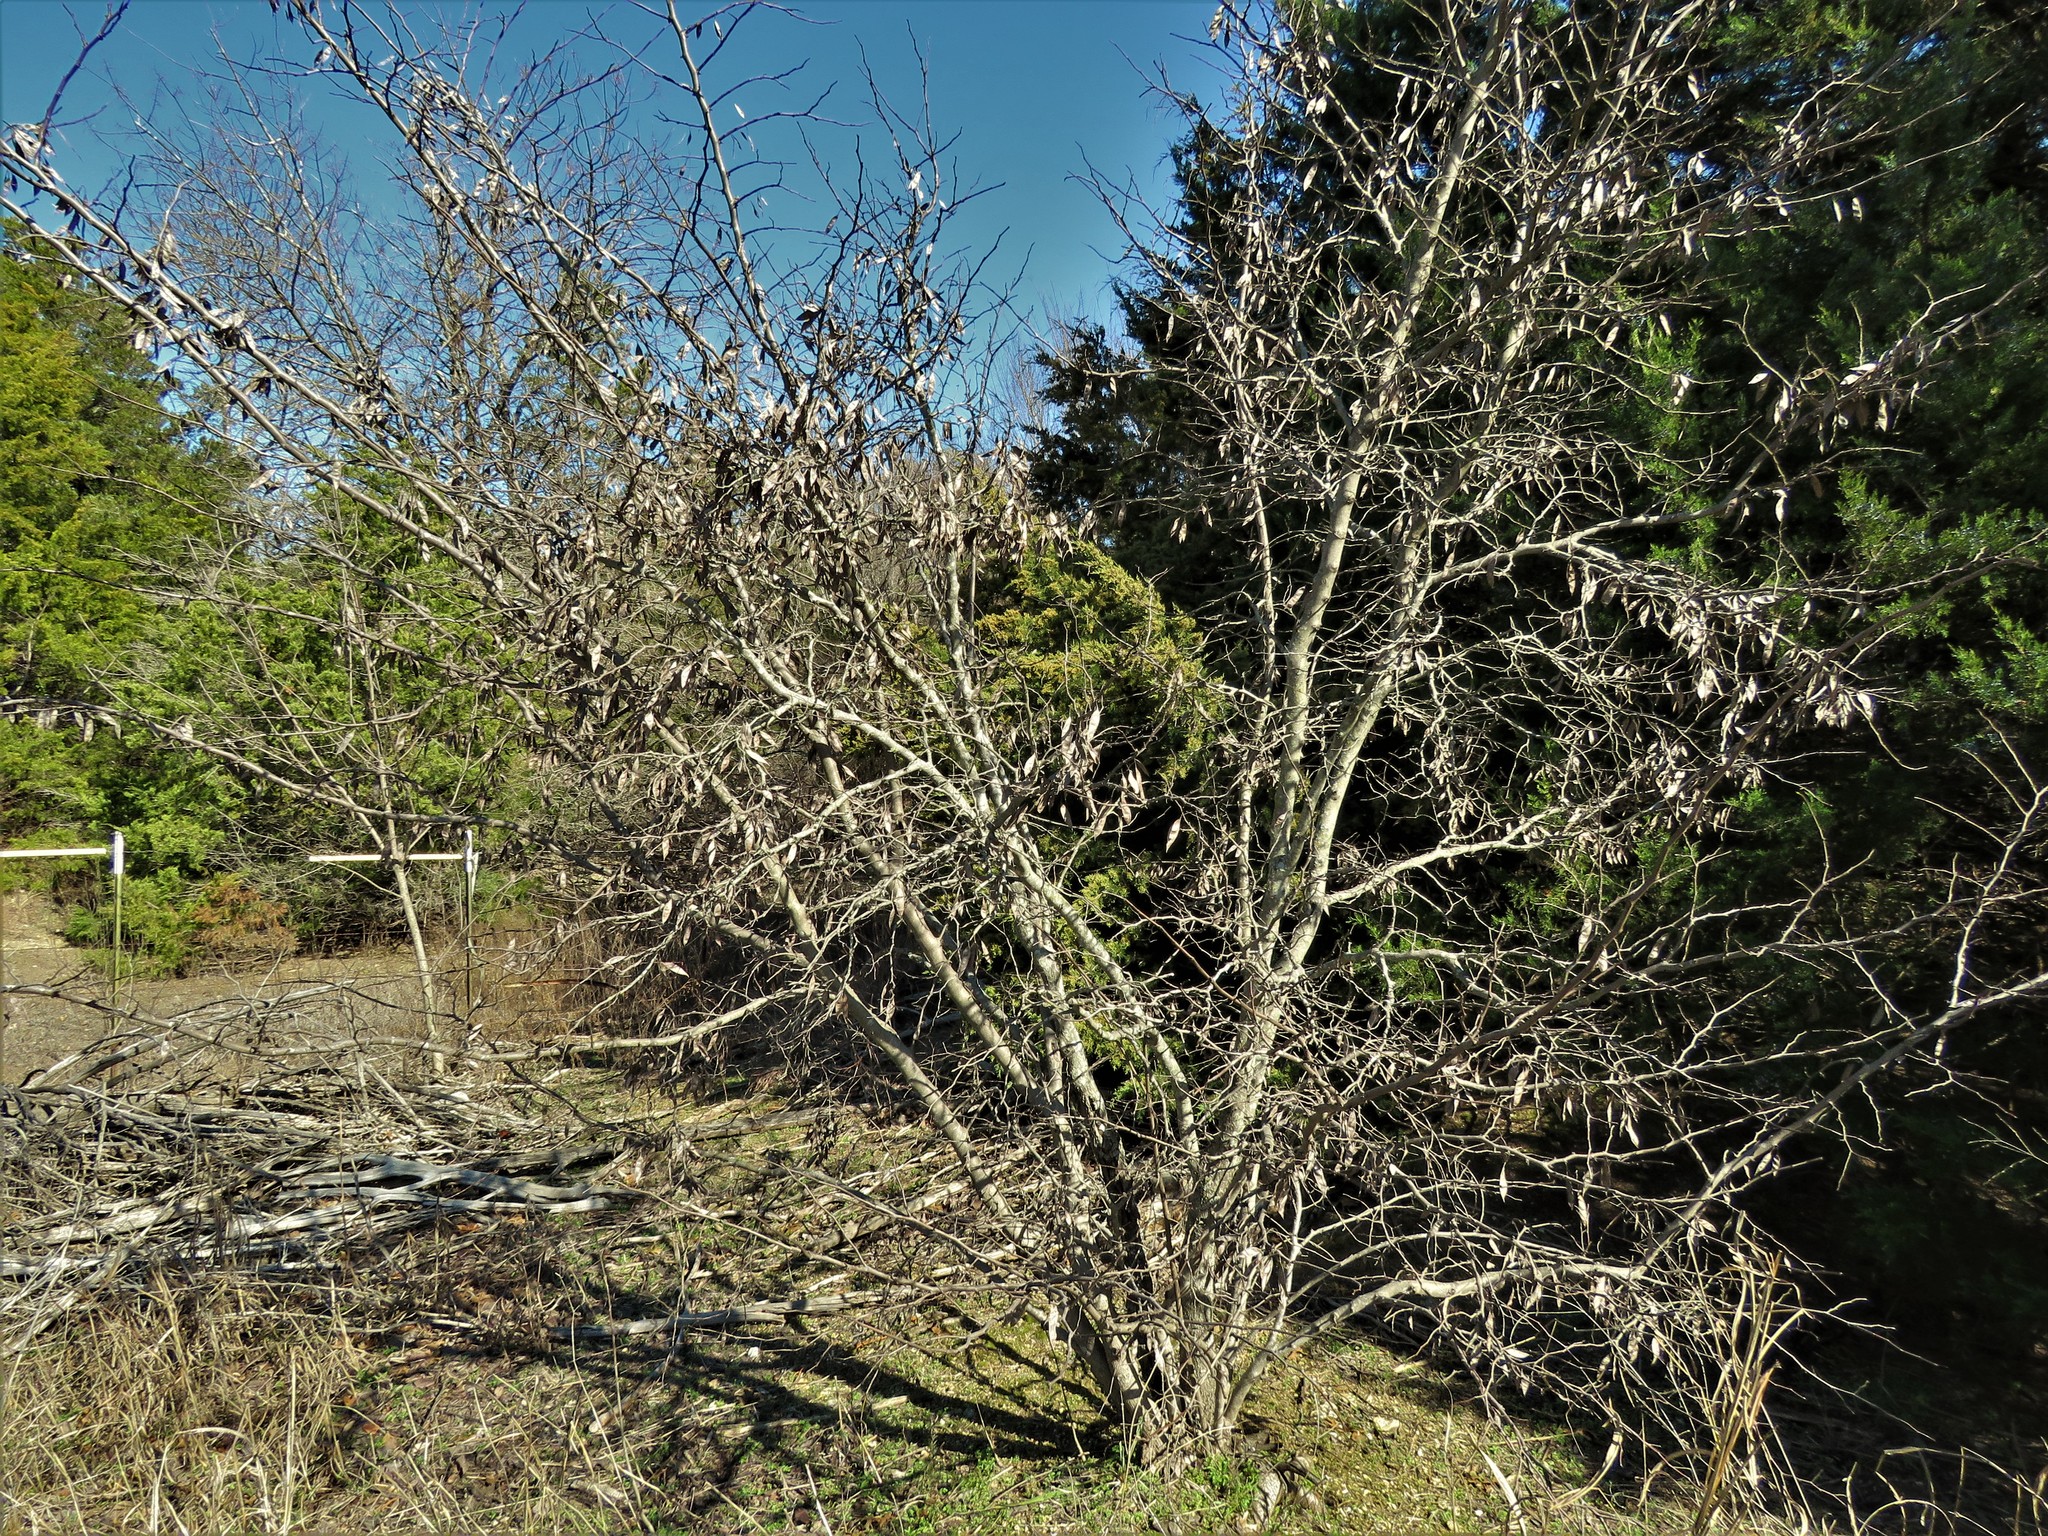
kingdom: Plantae
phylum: Tracheophyta
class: Magnoliopsida
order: Fabales
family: Fabaceae
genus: Cercis
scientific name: Cercis canadensis
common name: Eastern redbud
